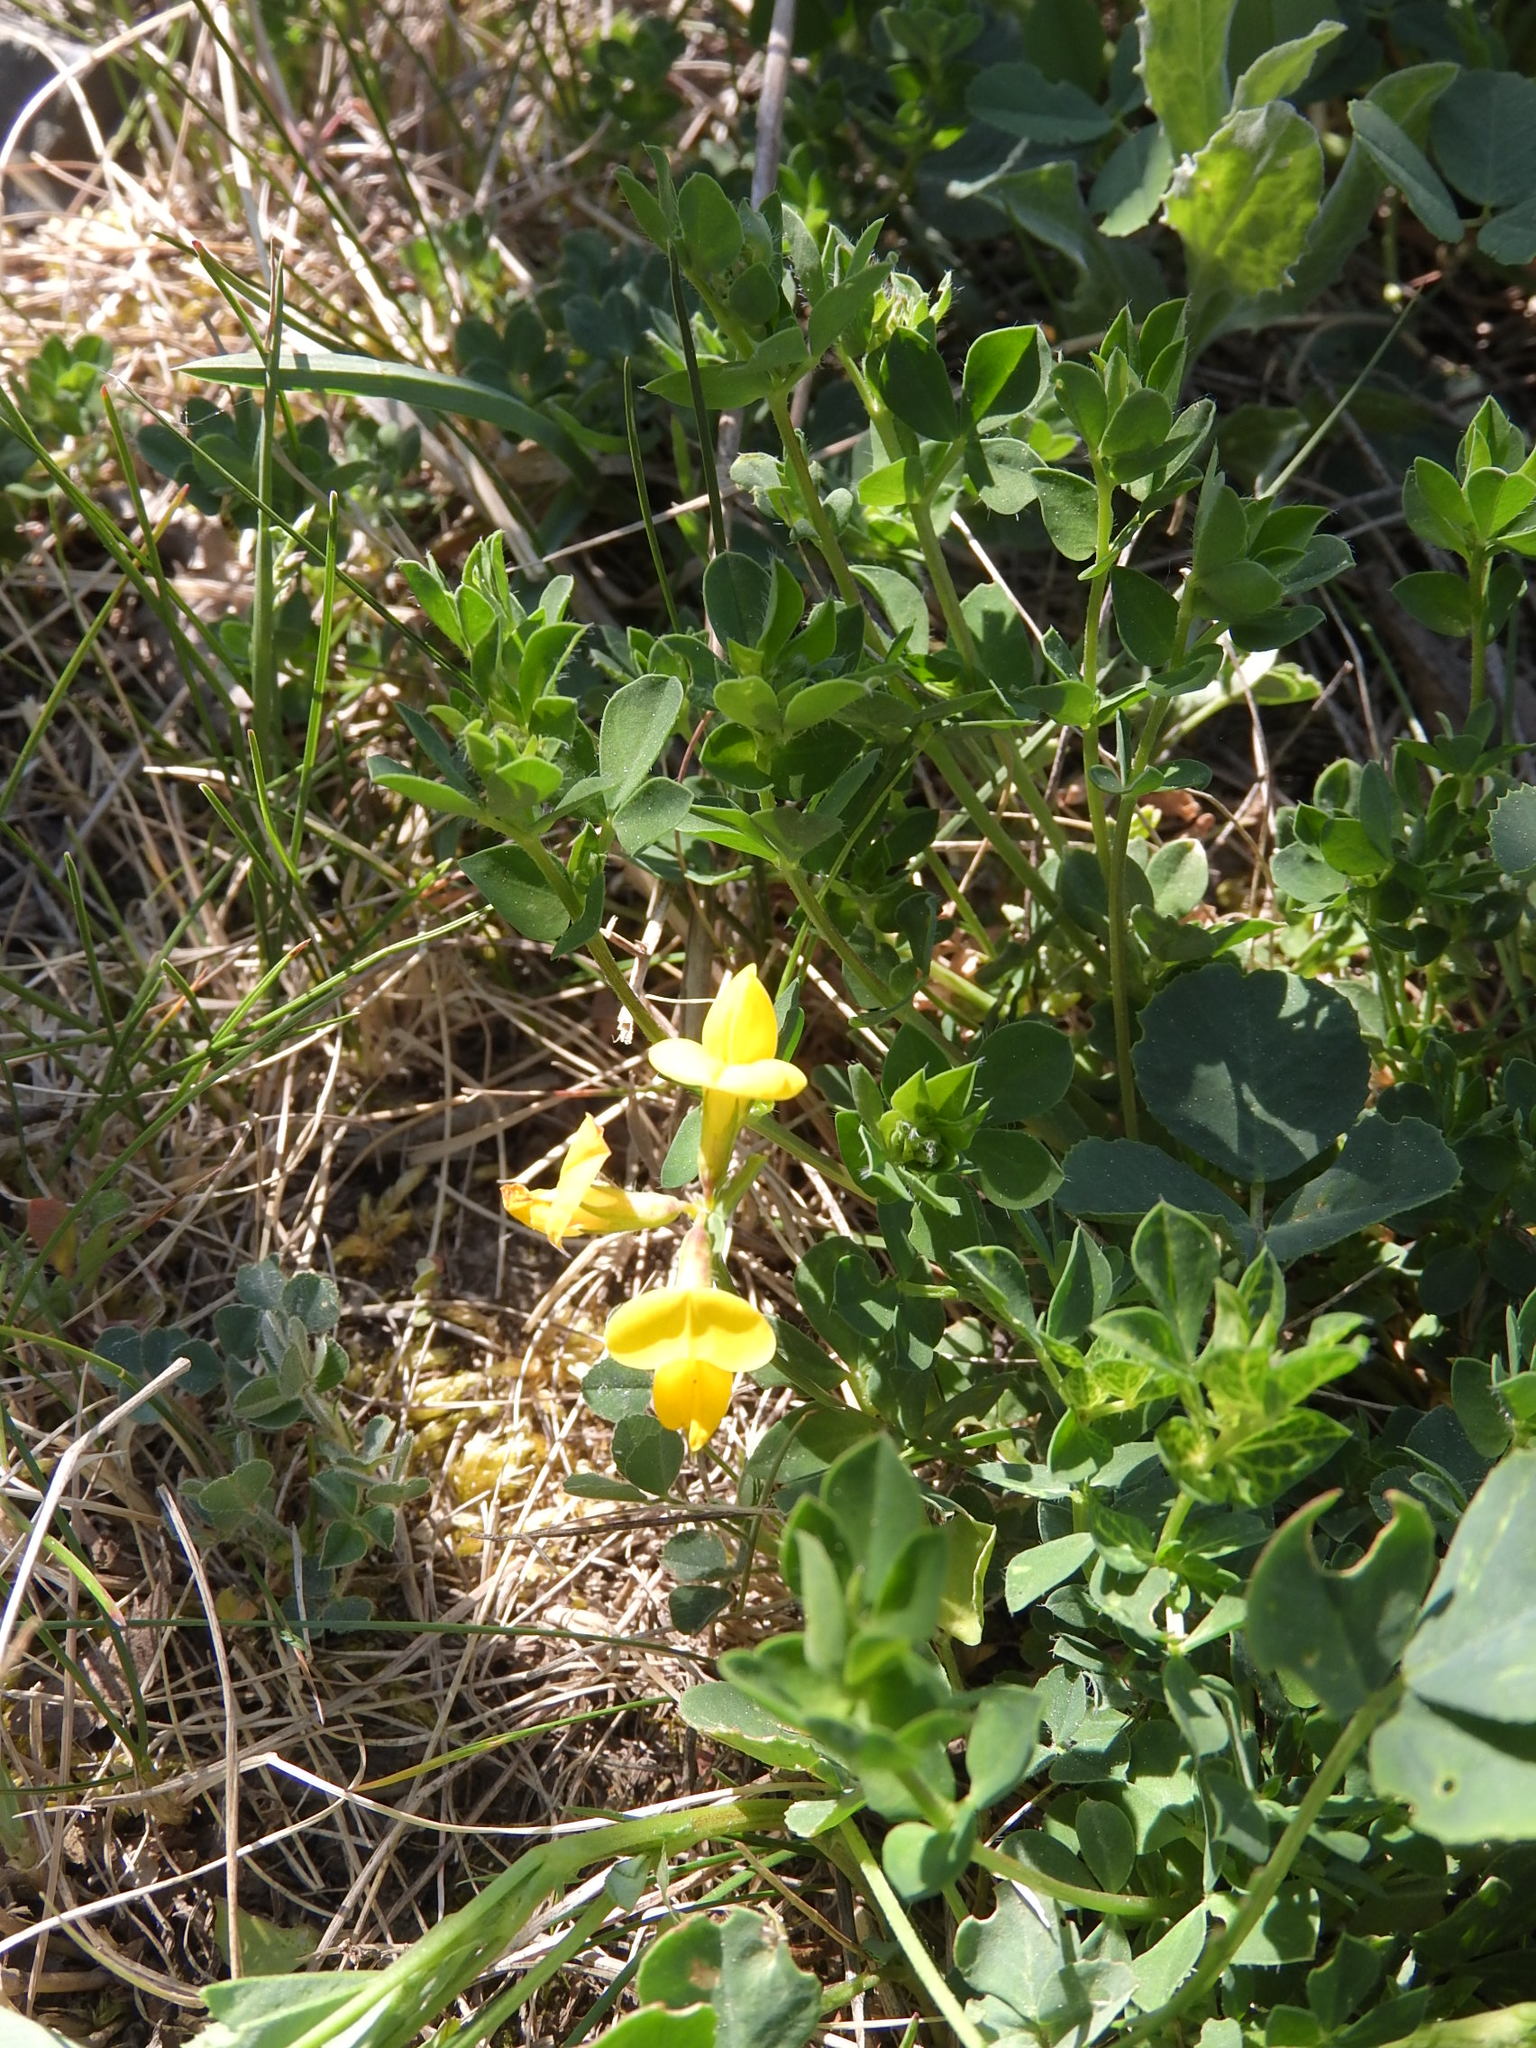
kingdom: Plantae
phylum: Tracheophyta
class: Magnoliopsida
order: Fabales
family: Fabaceae
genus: Lotus
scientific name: Lotus corniculatus
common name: Common bird's-foot-trefoil
